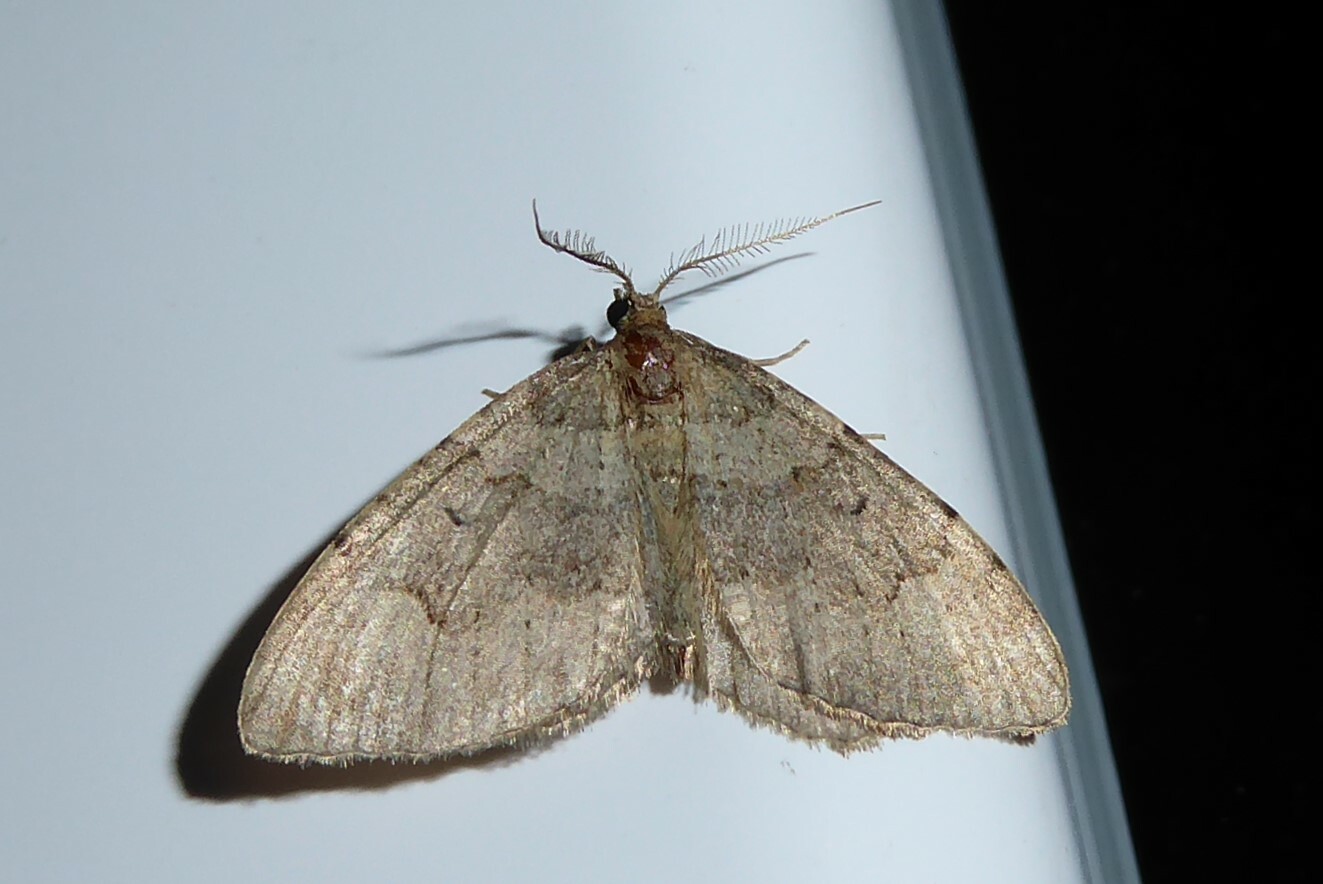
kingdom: Animalia
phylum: Arthropoda
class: Insecta
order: Lepidoptera
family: Geometridae
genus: Epyaxa
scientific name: Epyaxa rosearia
